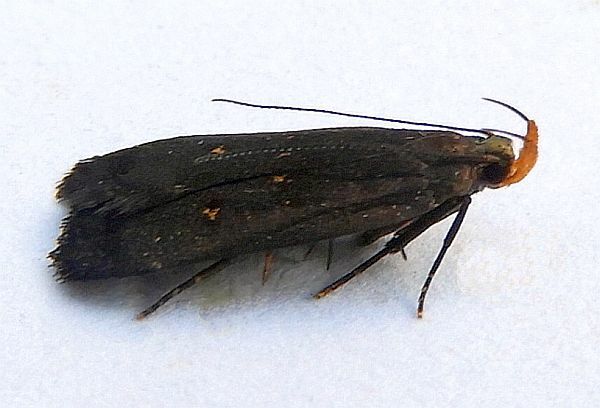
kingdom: Animalia
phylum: Arthropoda
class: Insecta
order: Lepidoptera
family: Gelechiidae
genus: Dichomeris
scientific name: Dichomeris juncidella
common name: Orange-dotted dichomeris moth
